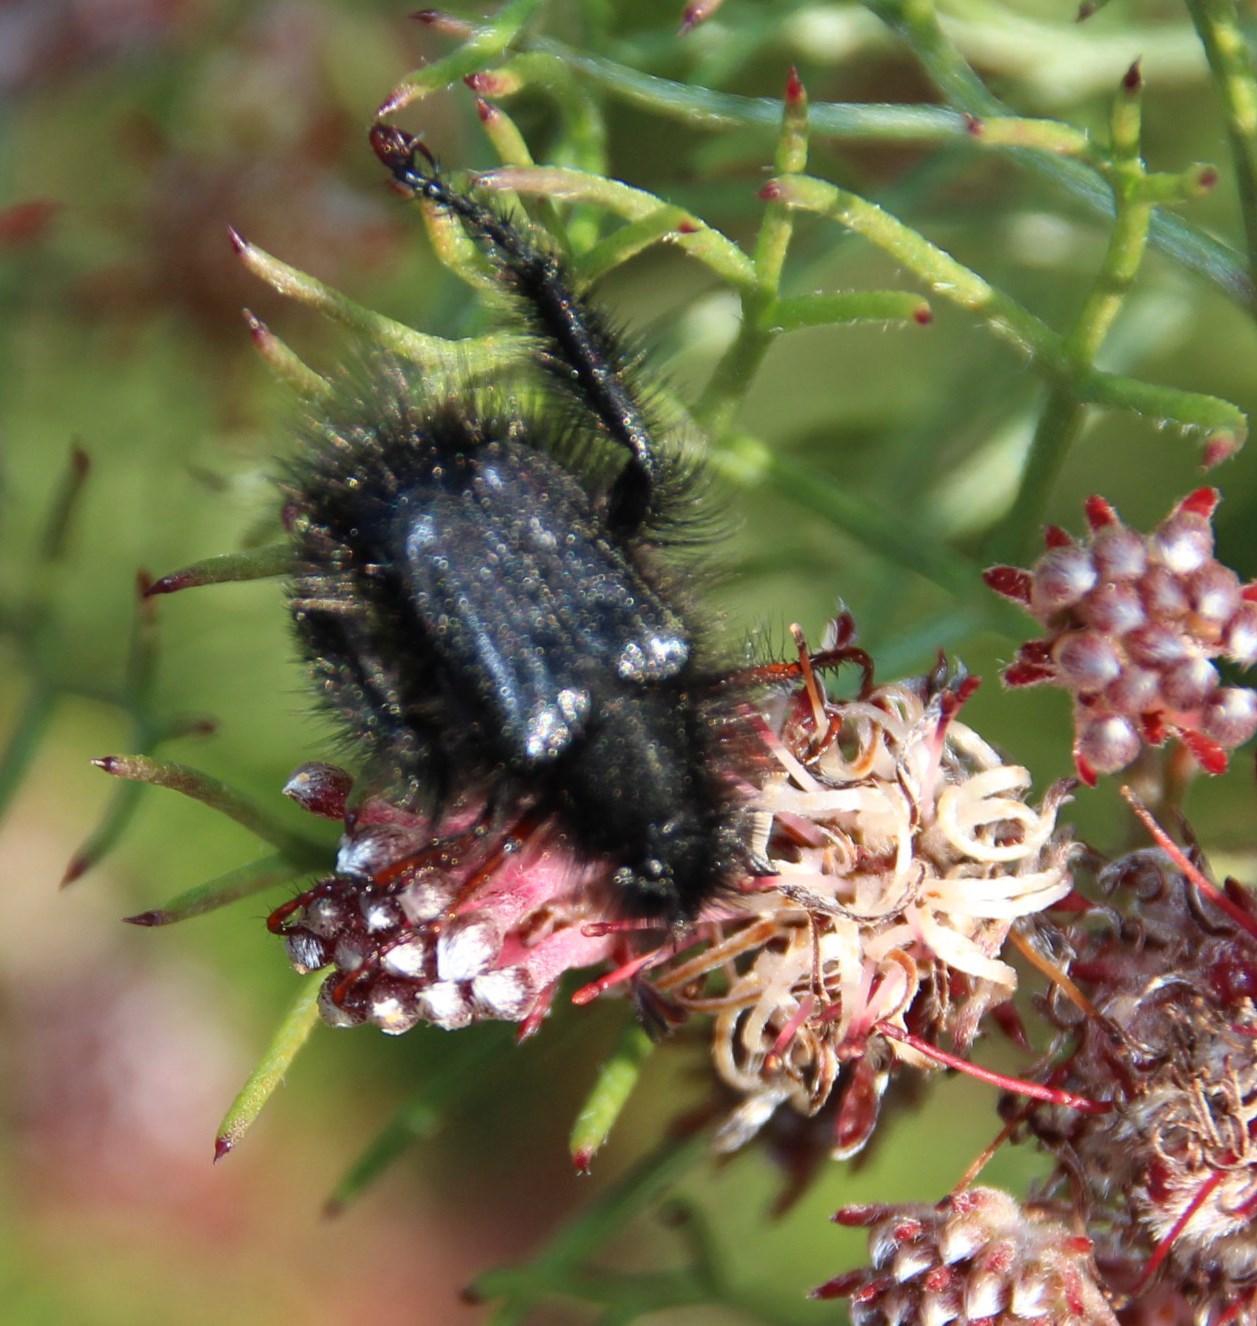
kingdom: Plantae
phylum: Tracheophyta
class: Magnoliopsida
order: Proteales
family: Proteaceae
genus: Serruria
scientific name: Serruria fasciflora
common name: Common pin spiderhead
